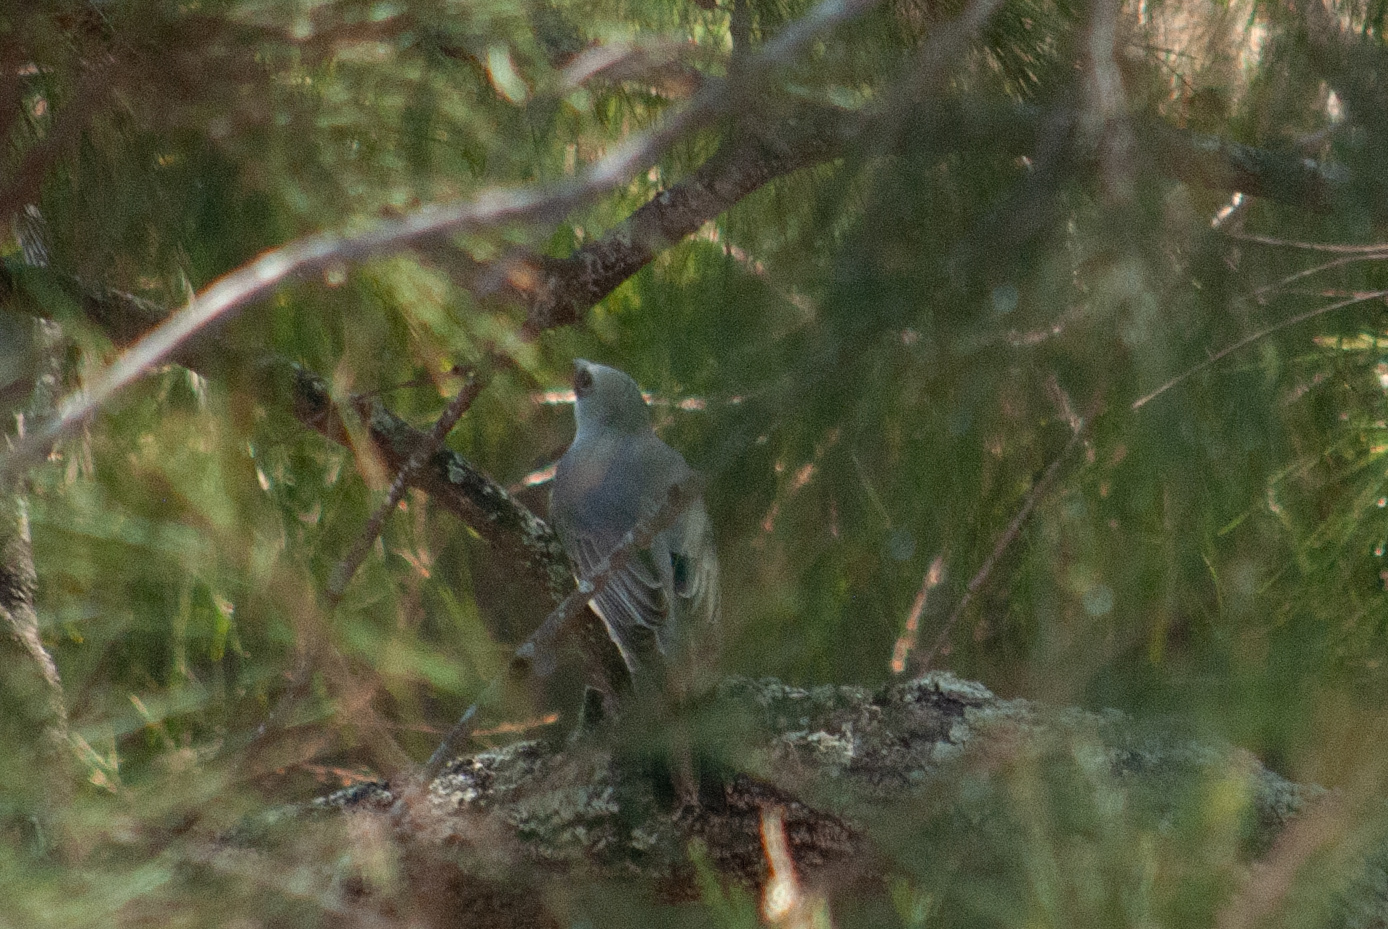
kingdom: Animalia
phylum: Chordata
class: Aves
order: Passeriformes
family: Campephagidae
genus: Coracina
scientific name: Coracina papuensis
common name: White-bellied cuckooshrike
